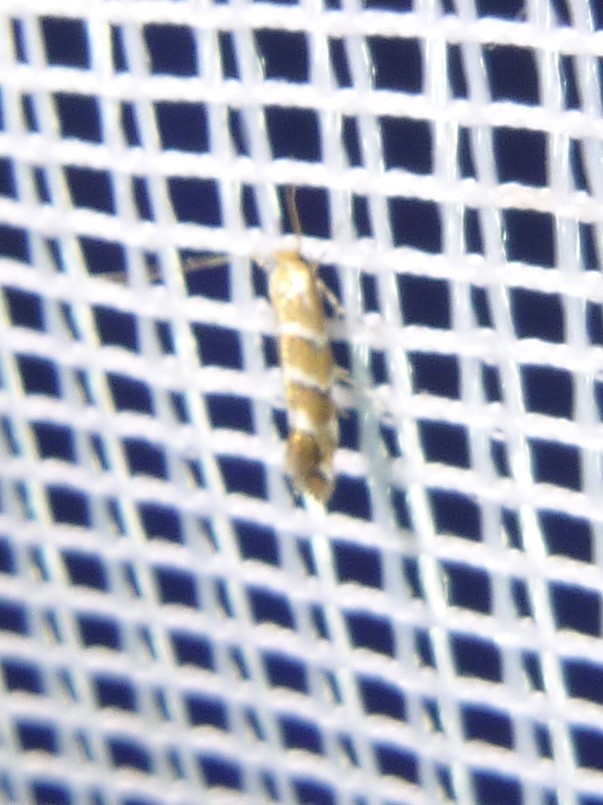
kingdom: Animalia
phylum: Arthropoda
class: Insecta
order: Lepidoptera
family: Gracillariidae
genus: Cameraria
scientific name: Cameraria ohridella
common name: Horse-chestnut leaf-miner
